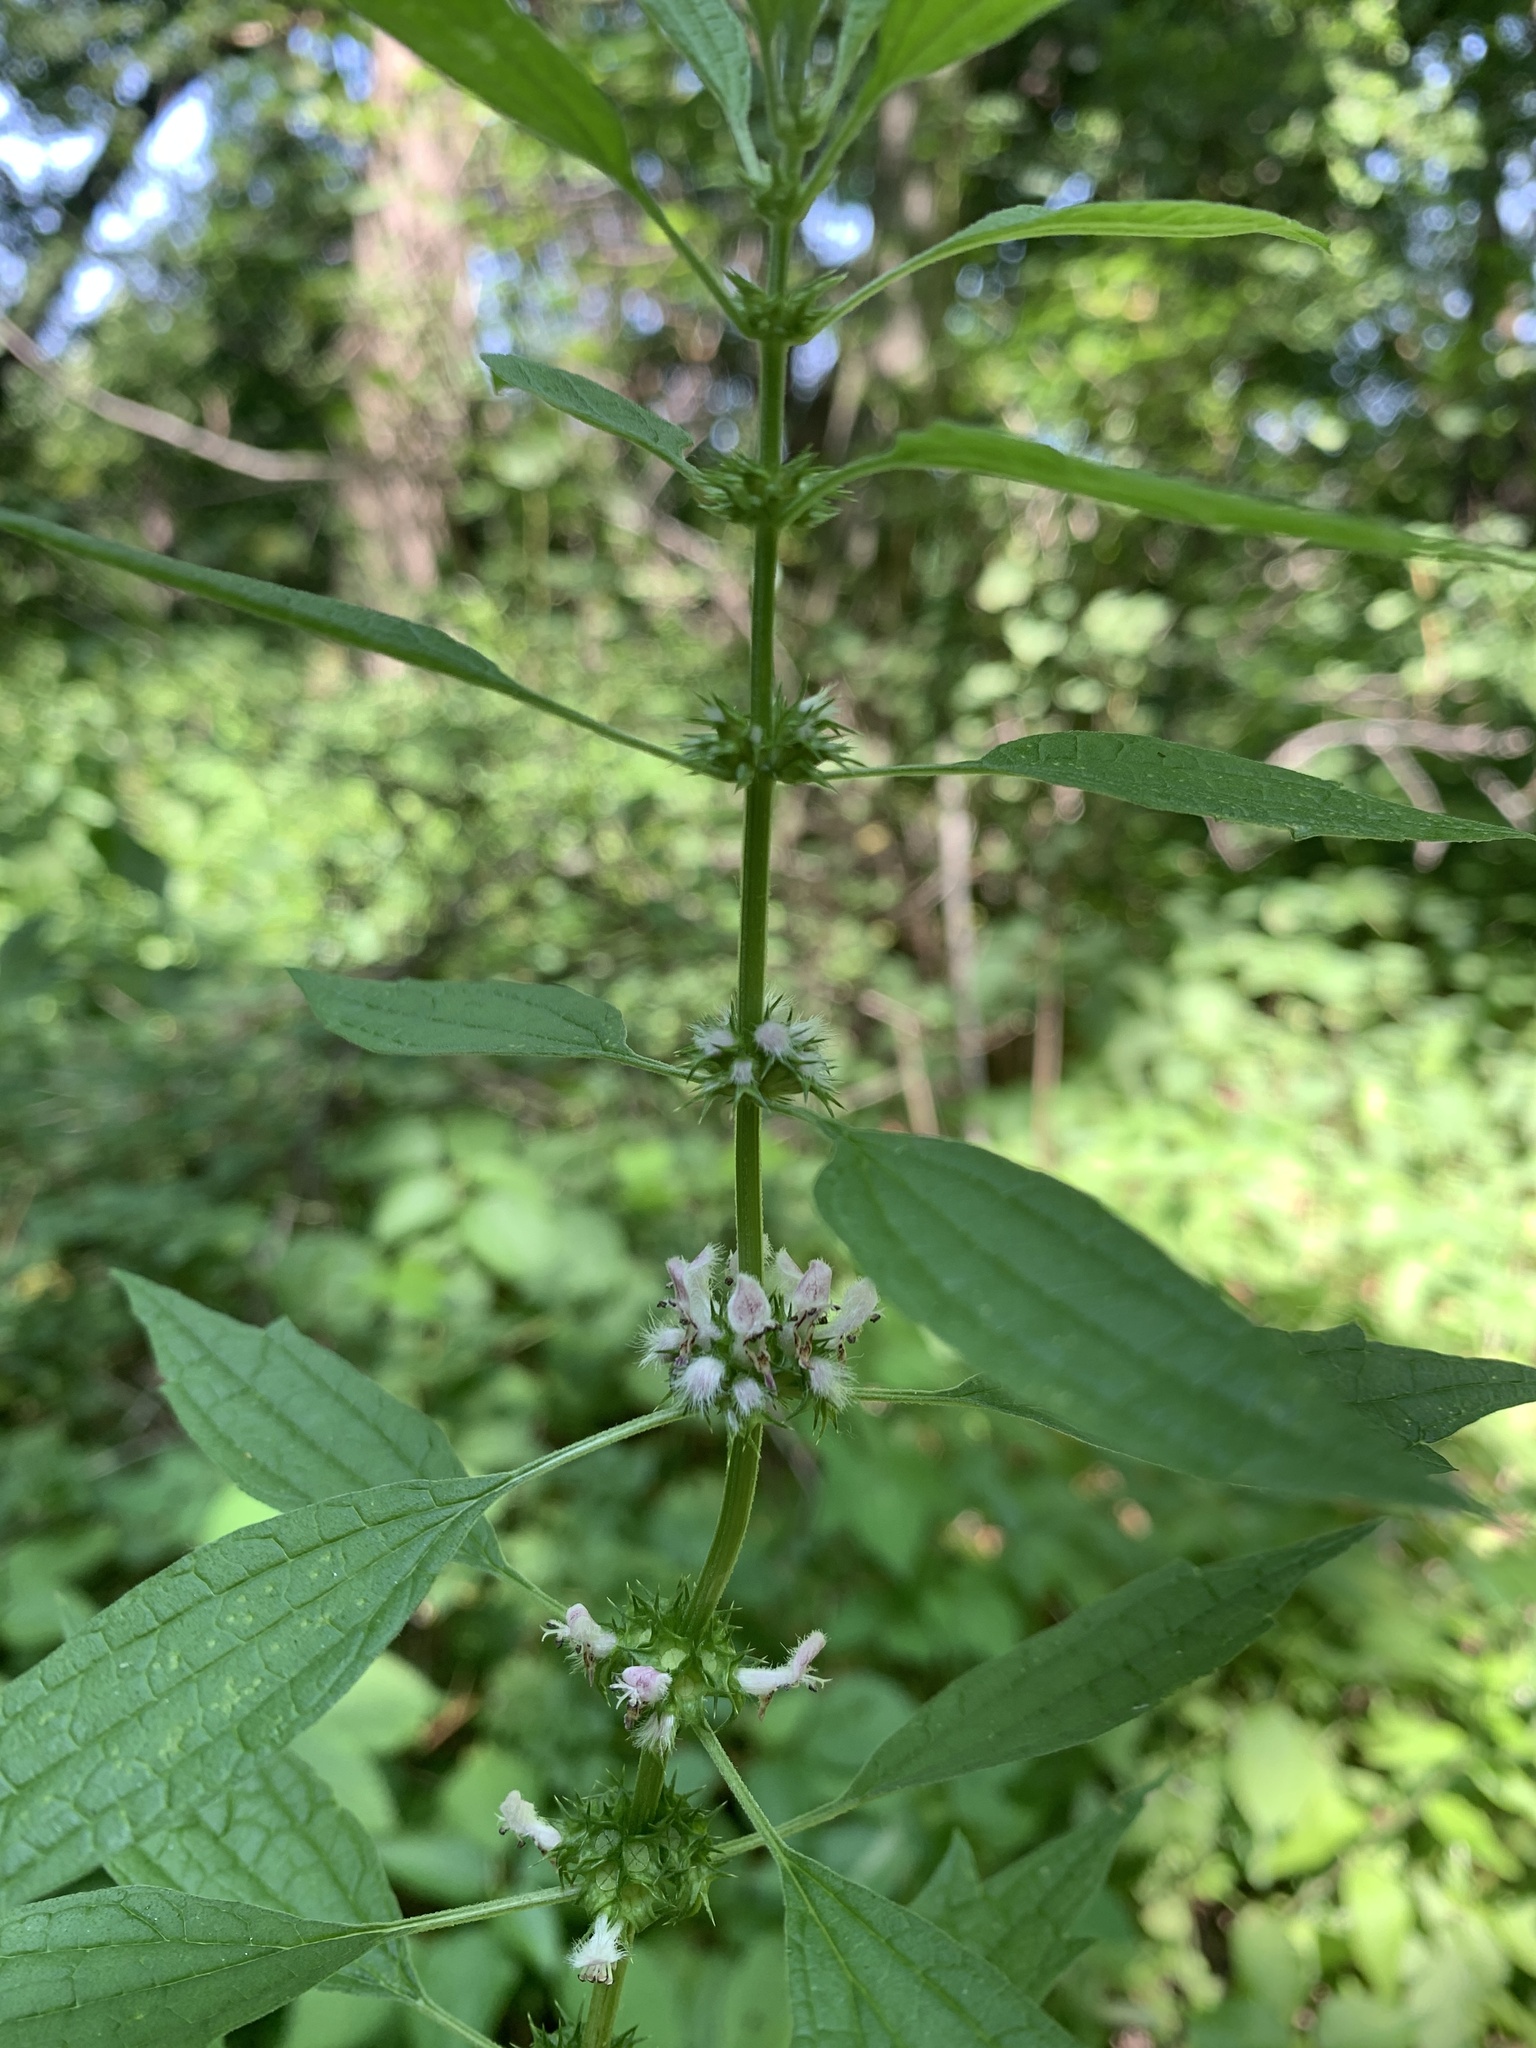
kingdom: Plantae
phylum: Tracheophyta
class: Magnoliopsida
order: Lamiales
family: Lamiaceae
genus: Leonurus
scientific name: Leonurus cardiaca
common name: Motherwort
